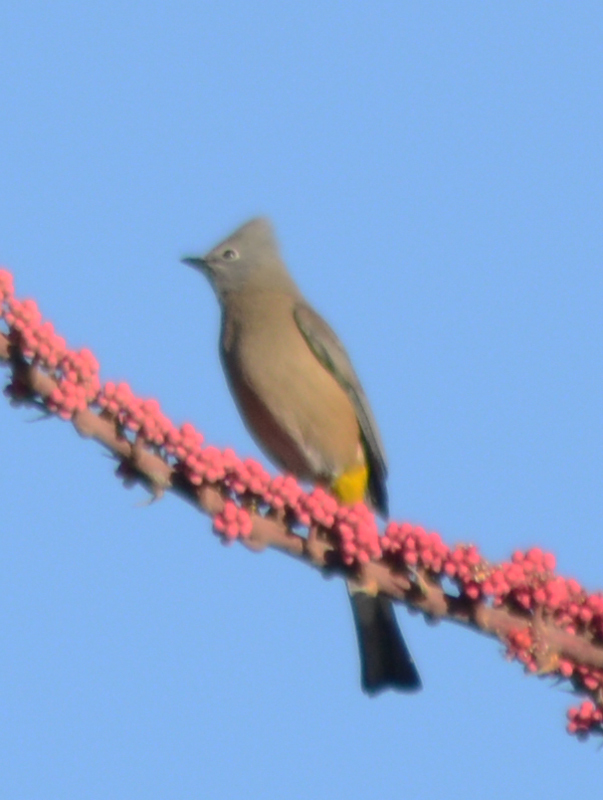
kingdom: Animalia
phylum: Chordata
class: Aves
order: Passeriformes
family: Ptilogonatidae
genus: Ptilogonys
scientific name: Ptilogonys cinereus
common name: Gray silky-flycatcher
